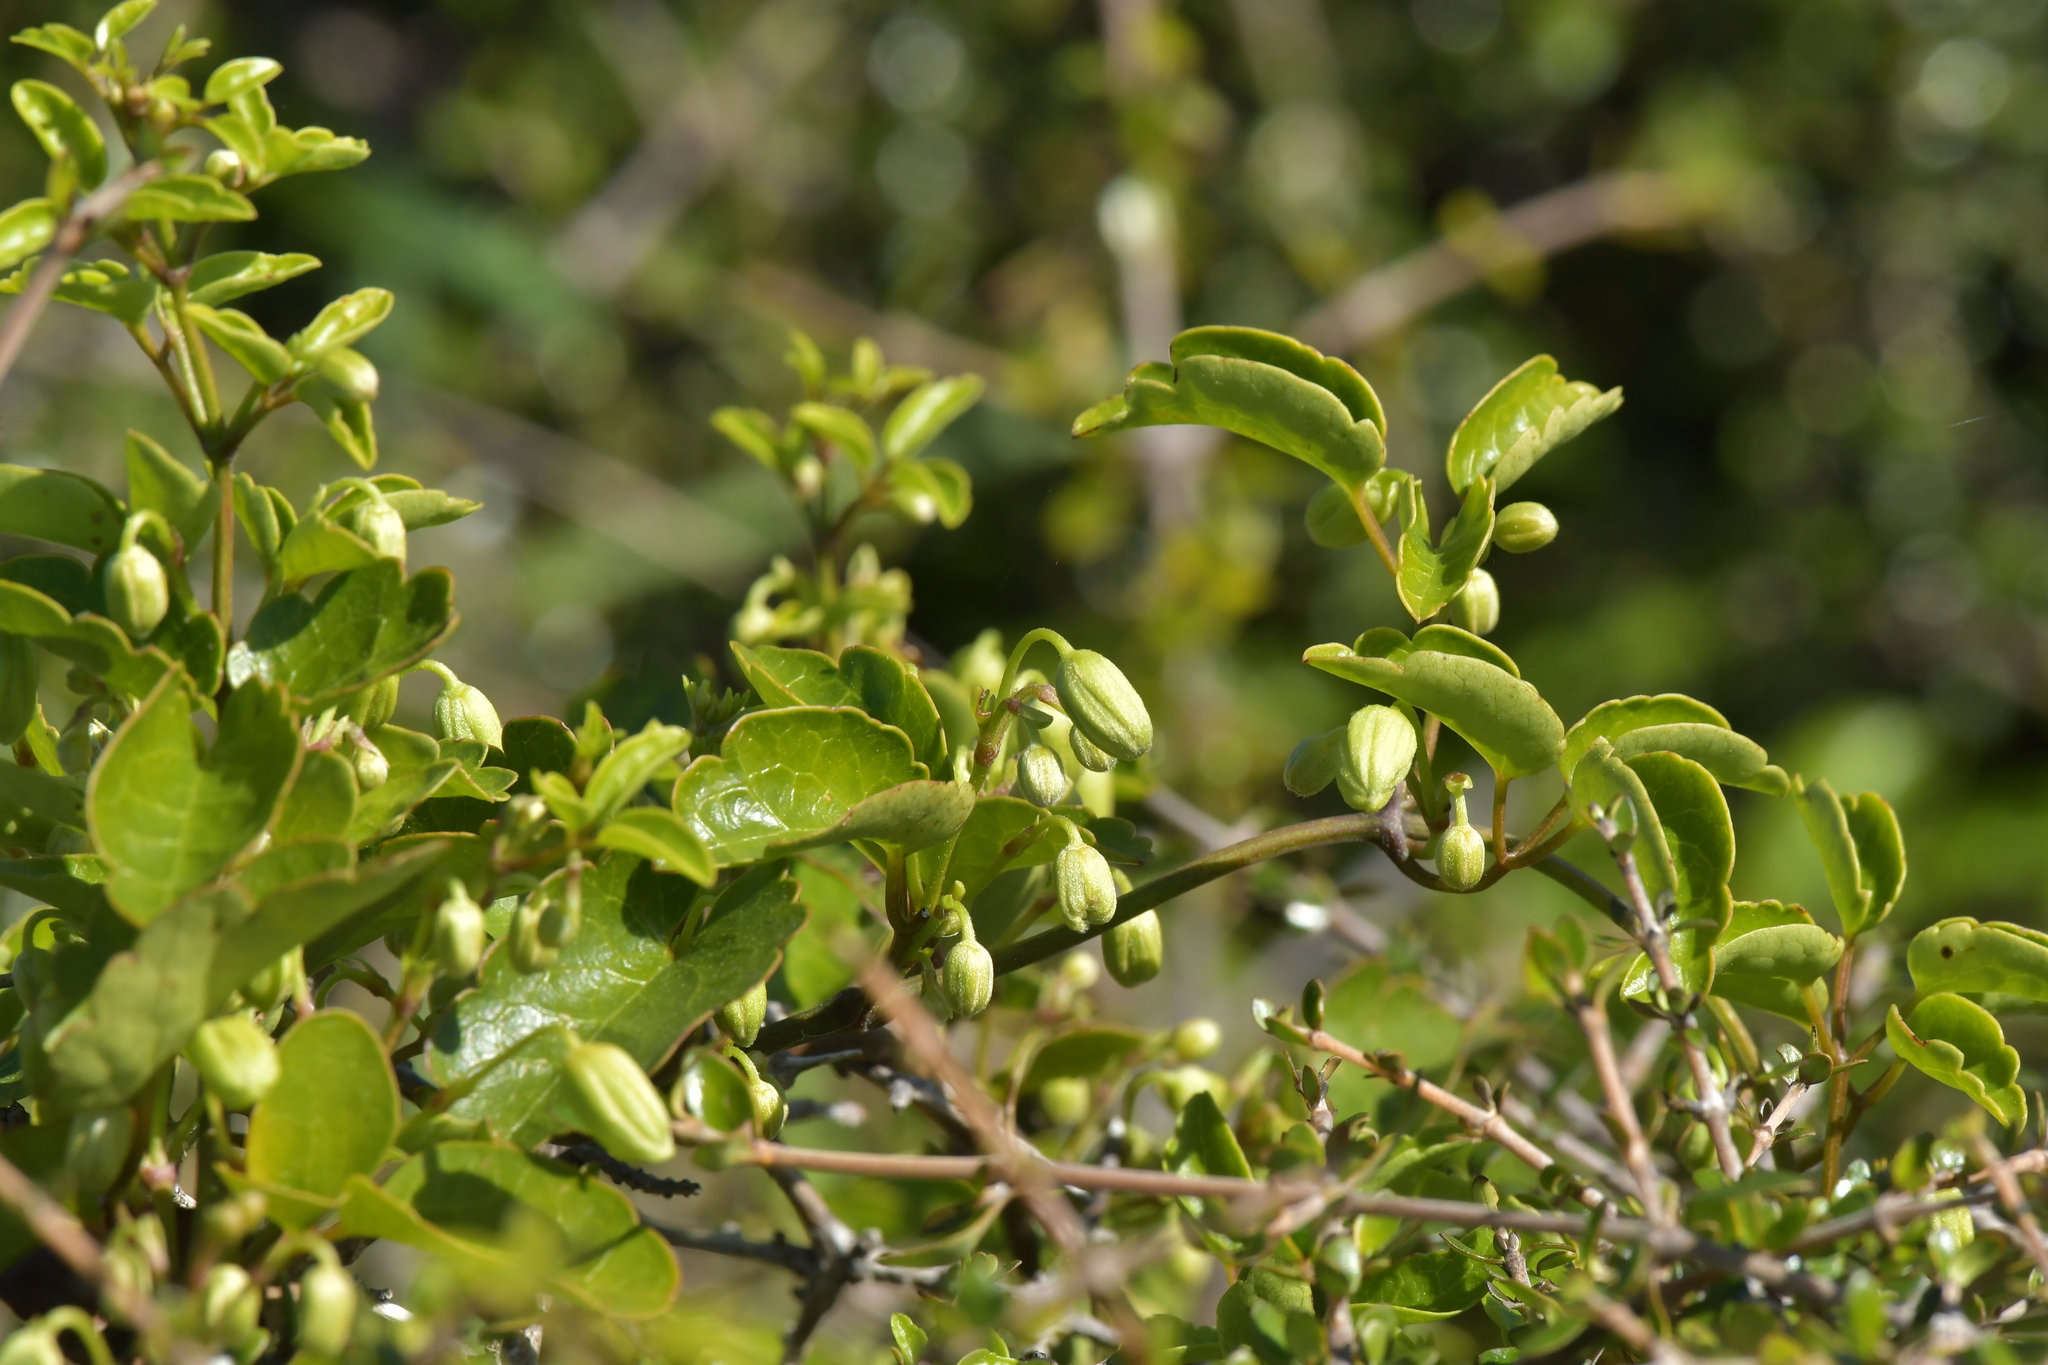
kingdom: Plantae
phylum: Tracheophyta
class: Magnoliopsida
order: Ranunculales
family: Ranunculaceae
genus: Clematis
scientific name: Clematis forsteri
